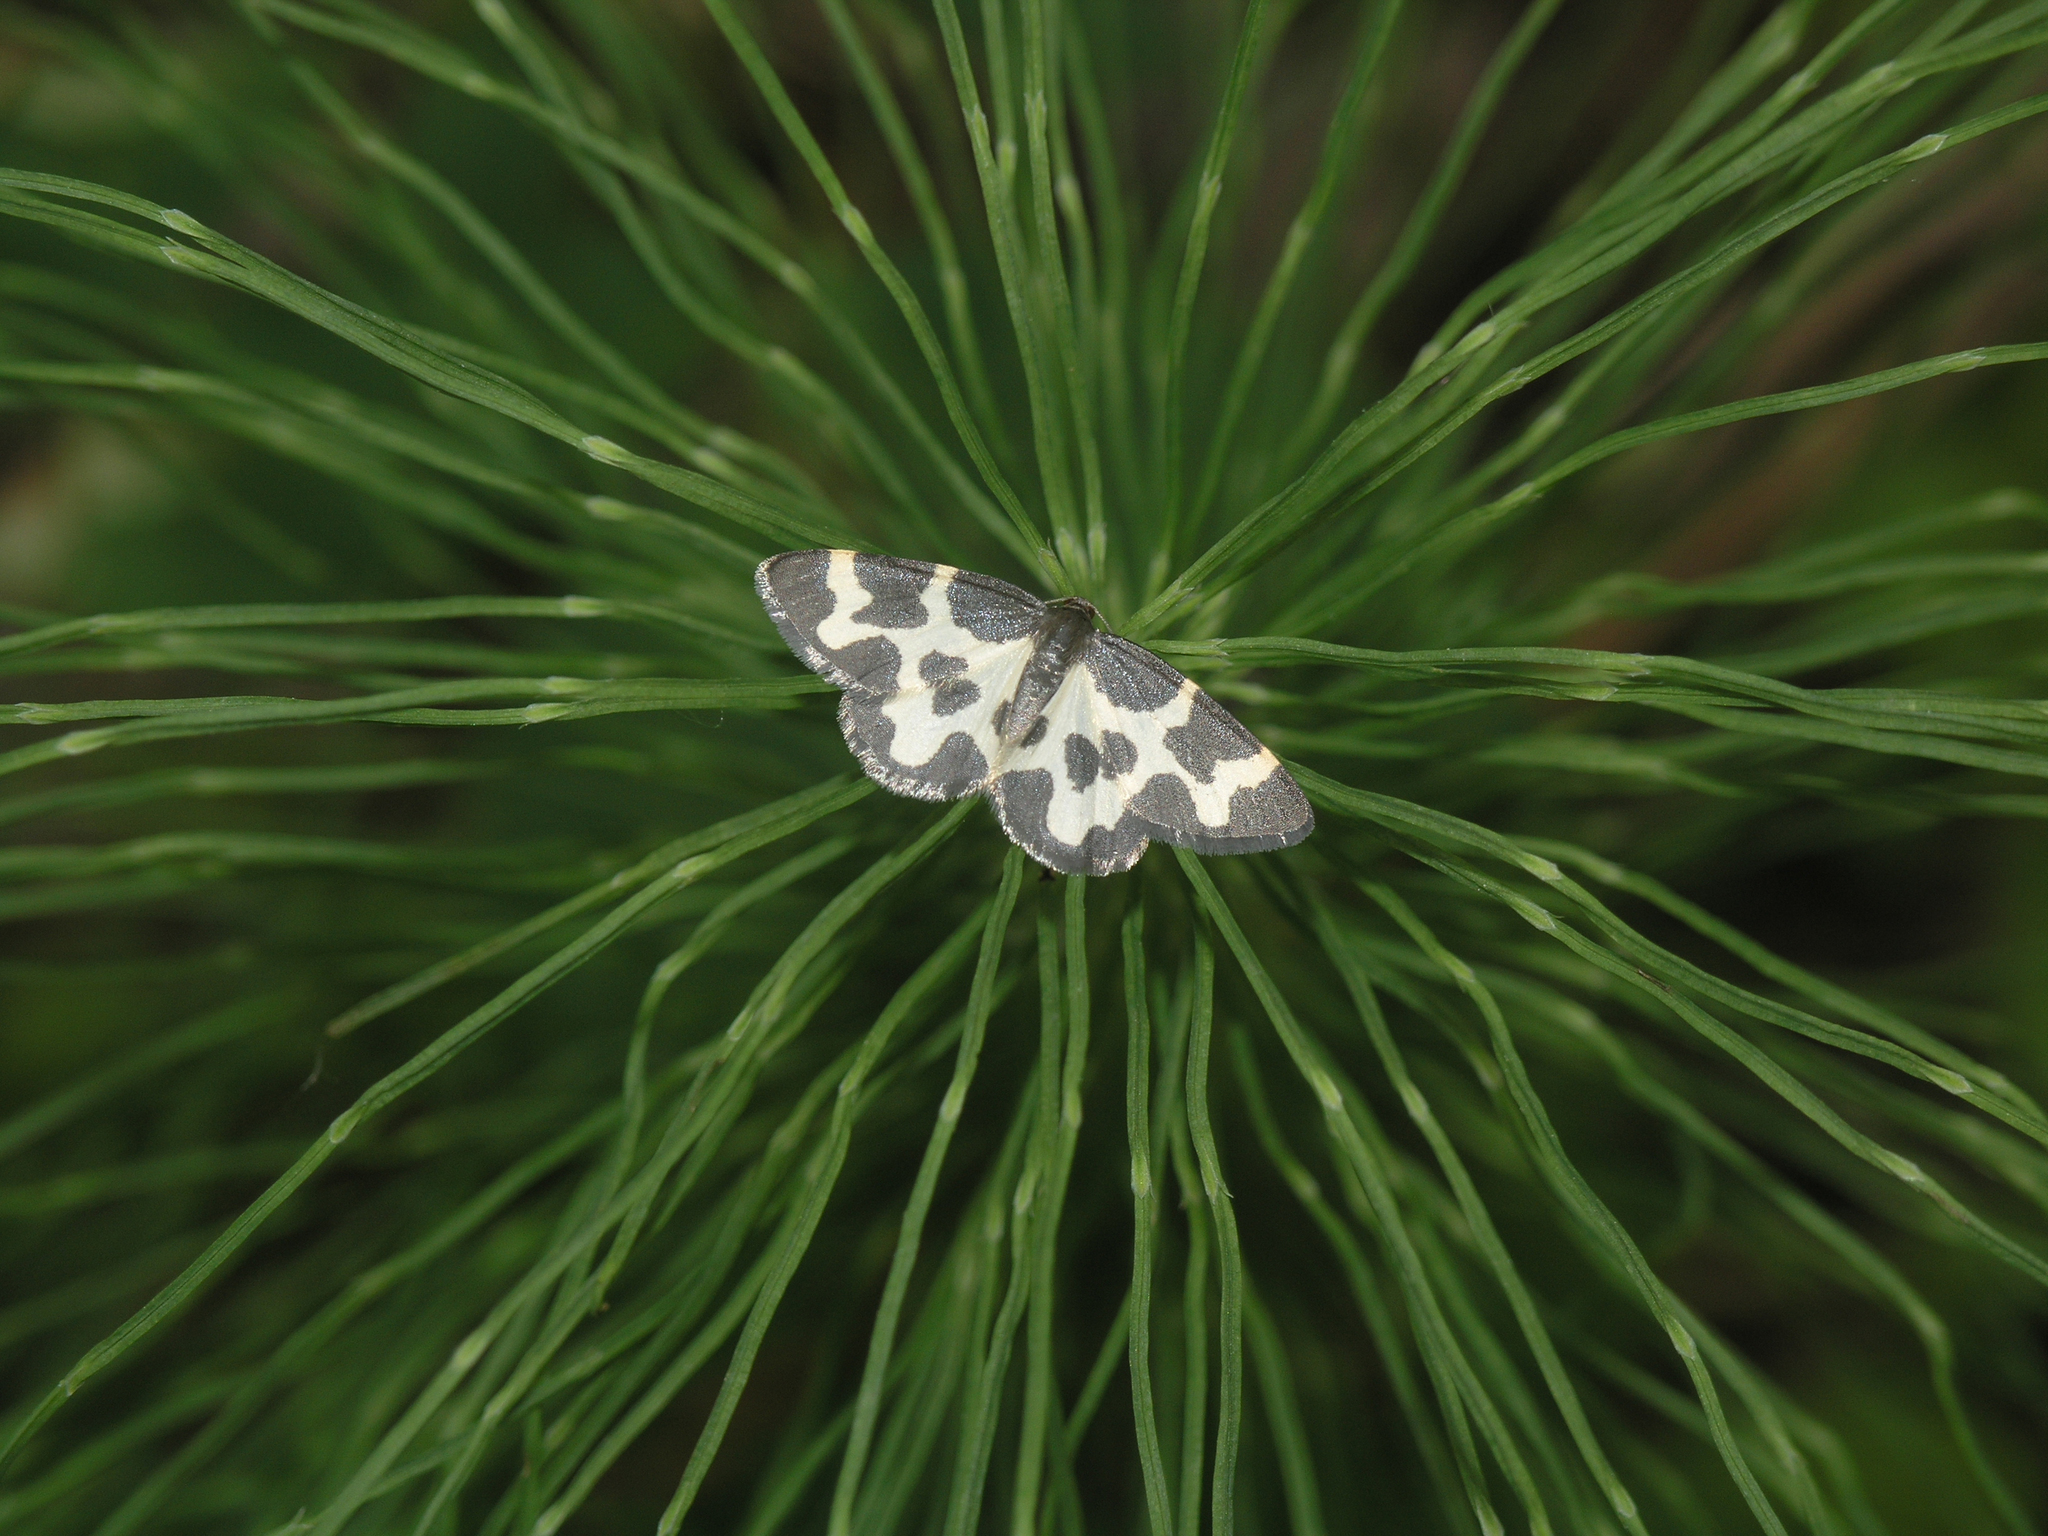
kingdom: Animalia
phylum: Arthropoda
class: Insecta
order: Lepidoptera
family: Geometridae
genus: Lomaspilis
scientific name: Lomaspilis opis
